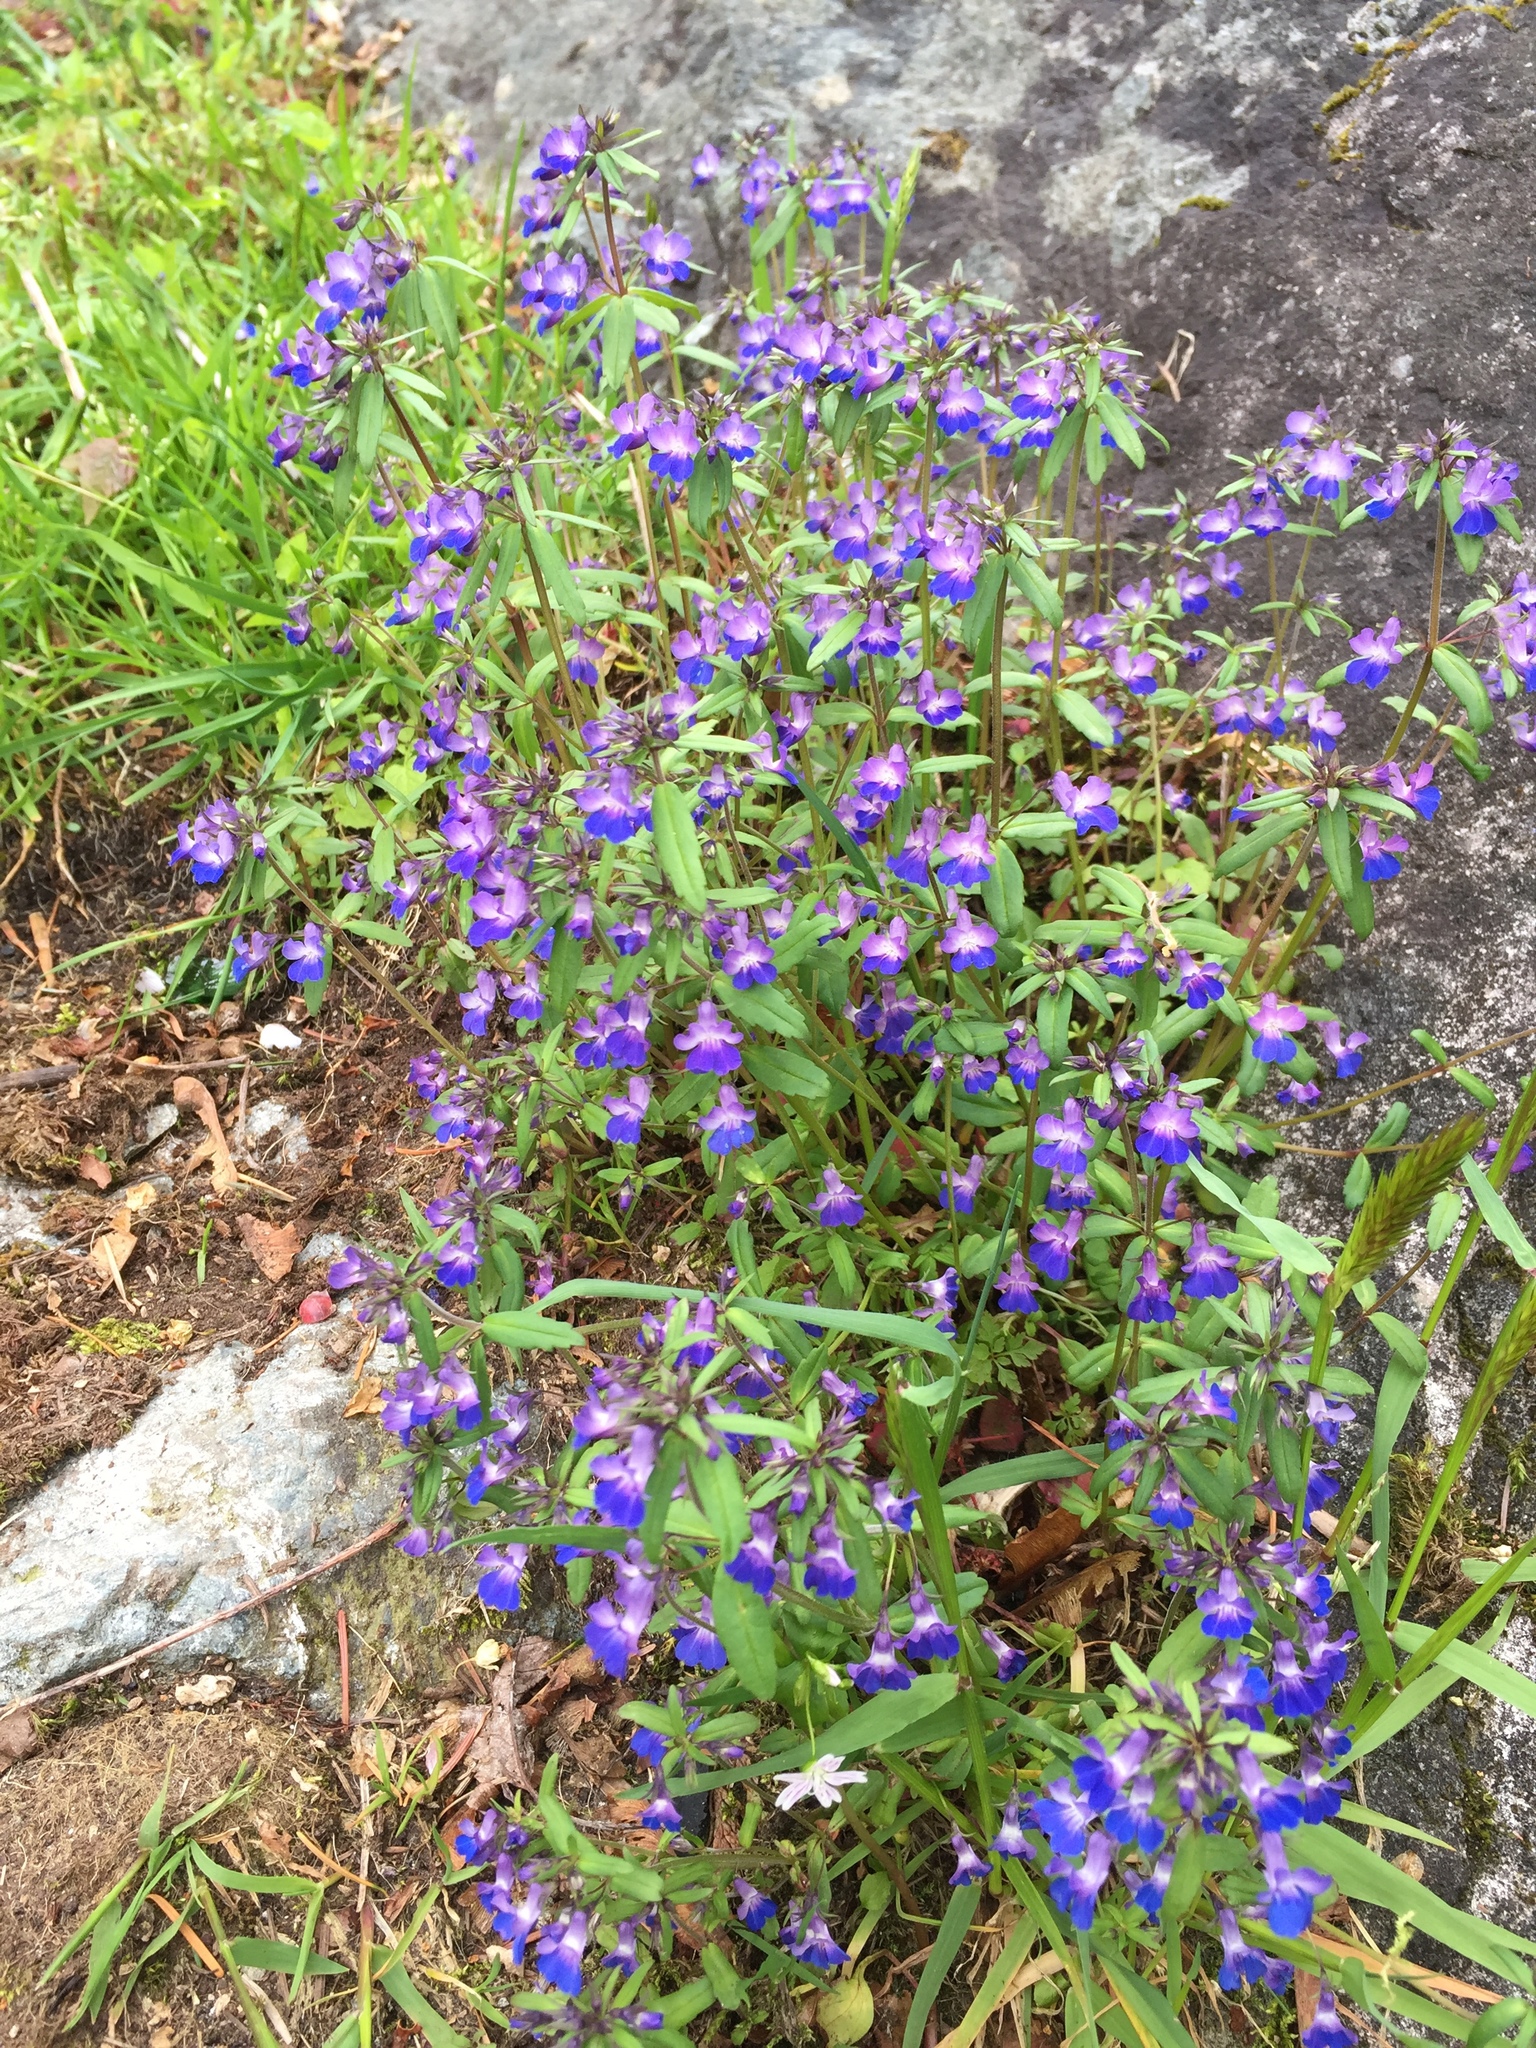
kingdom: Plantae
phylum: Tracheophyta
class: Magnoliopsida
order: Lamiales
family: Plantaginaceae
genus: Collinsia
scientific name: Collinsia grandiflora
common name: Large-flower blue-eyed-mary
